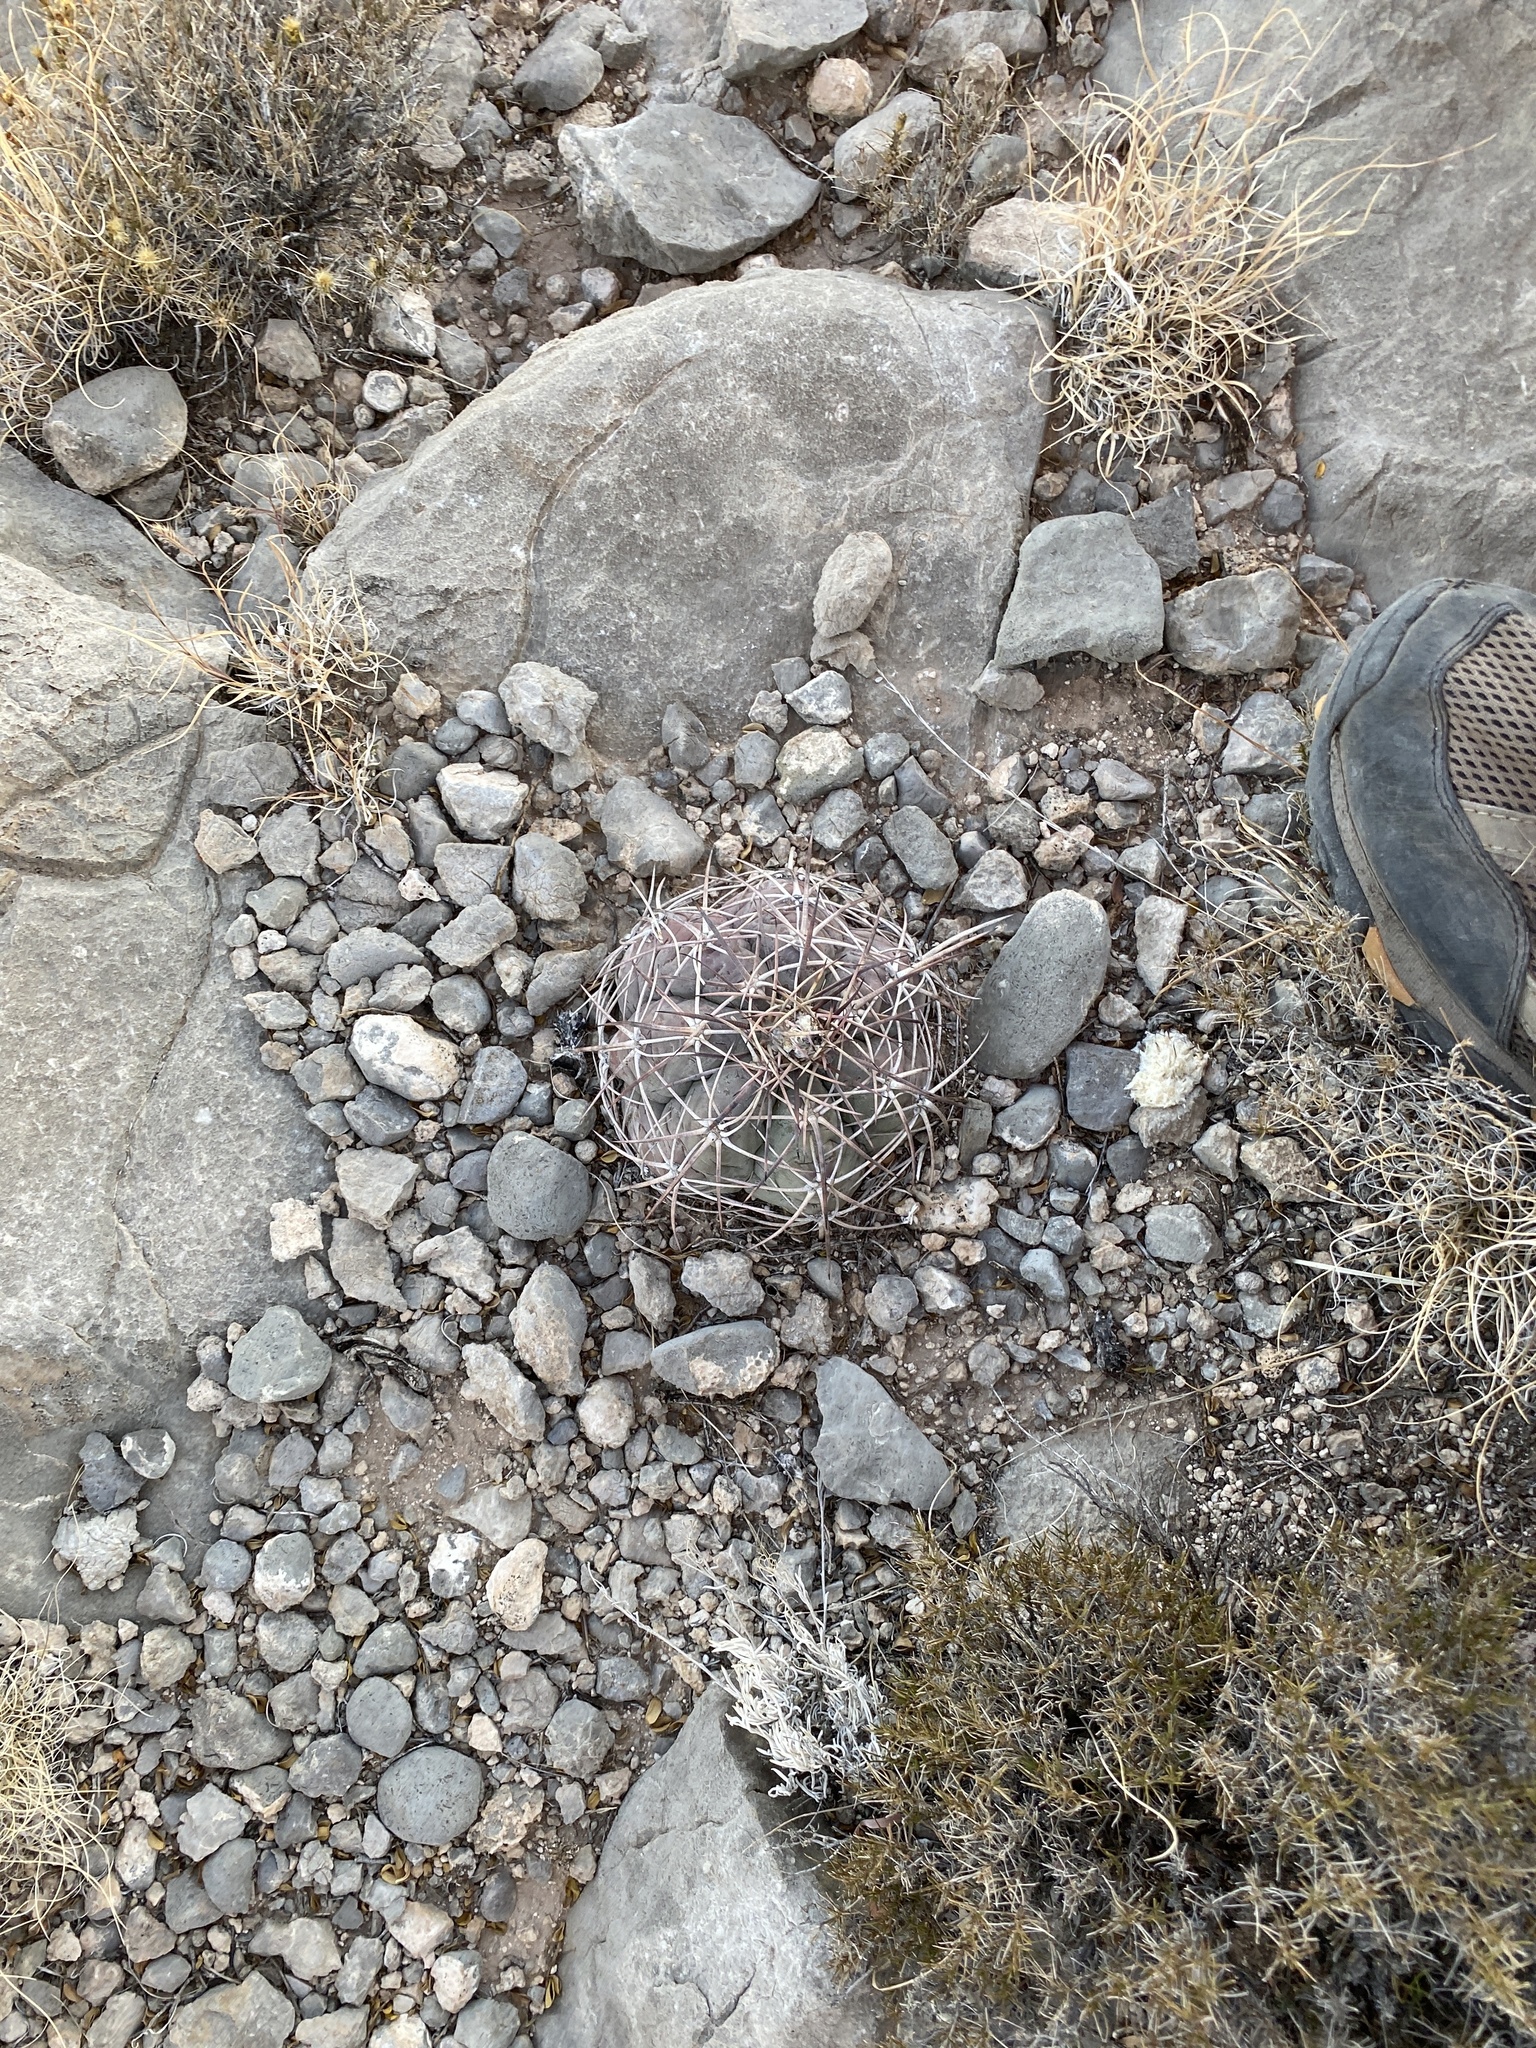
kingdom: Plantae
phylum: Tracheophyta
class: Magnoliopsida
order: Caryophyllales
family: Cactaceae
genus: Echinocactus
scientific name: Echinocactus horizonthalonius
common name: Devilshead
